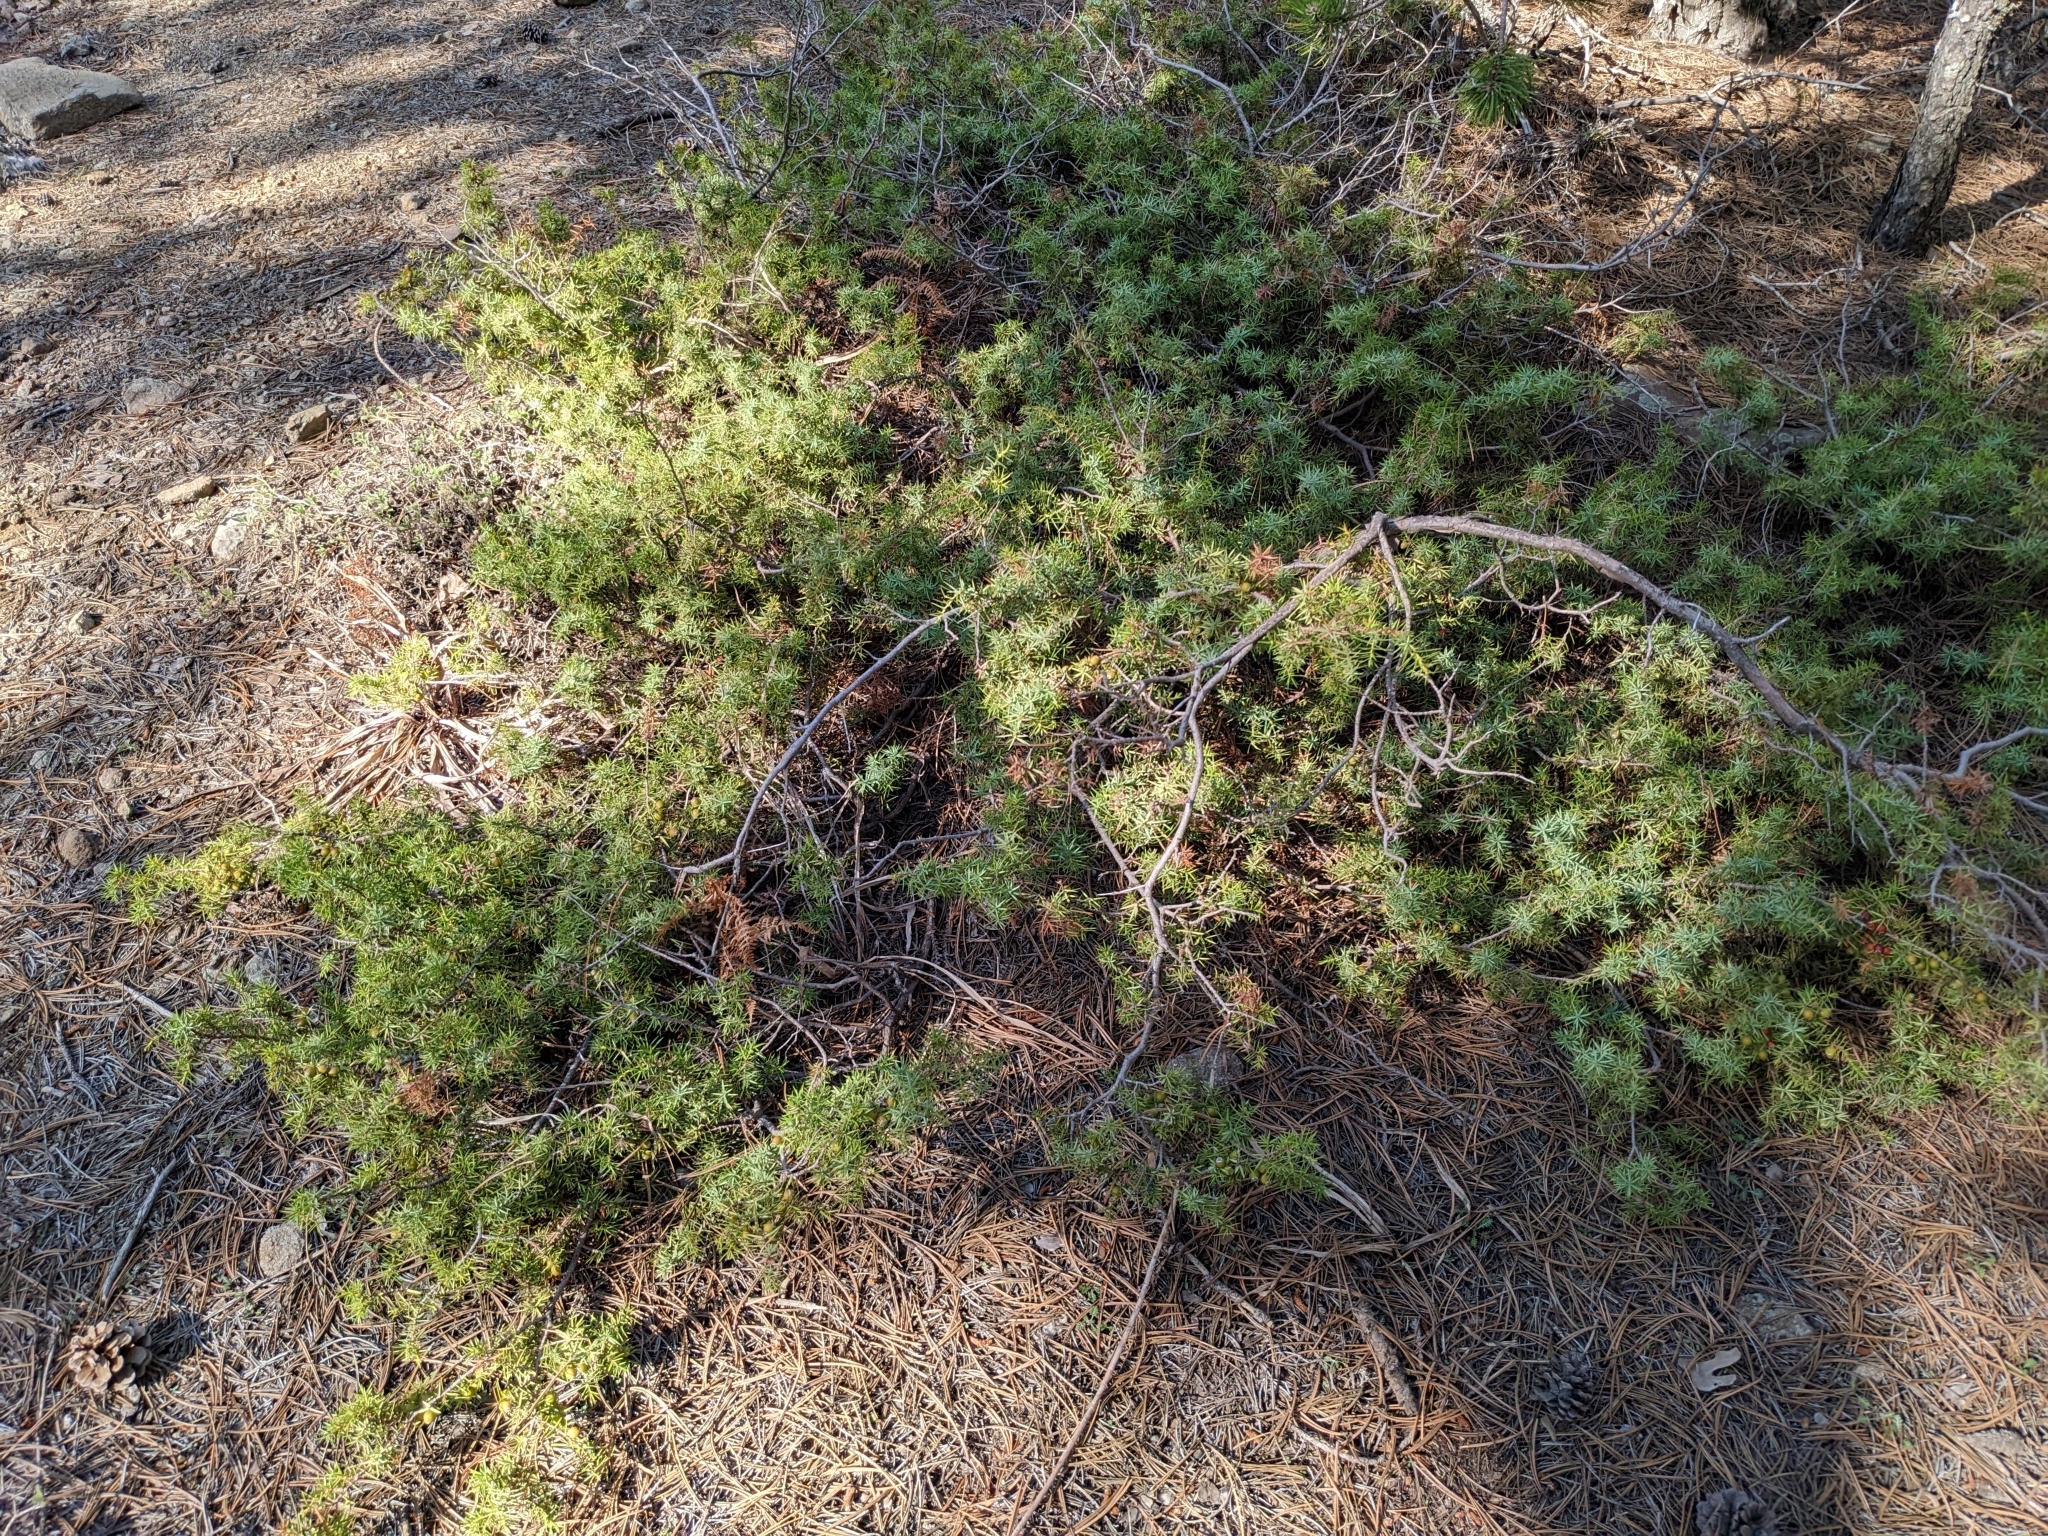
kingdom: Plantae
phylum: Tracheophyta
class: Pinopsida
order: Pinales
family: Cupressaceae
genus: Juniperus
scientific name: Juniperus oxycedrus
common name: Prickly juniper
